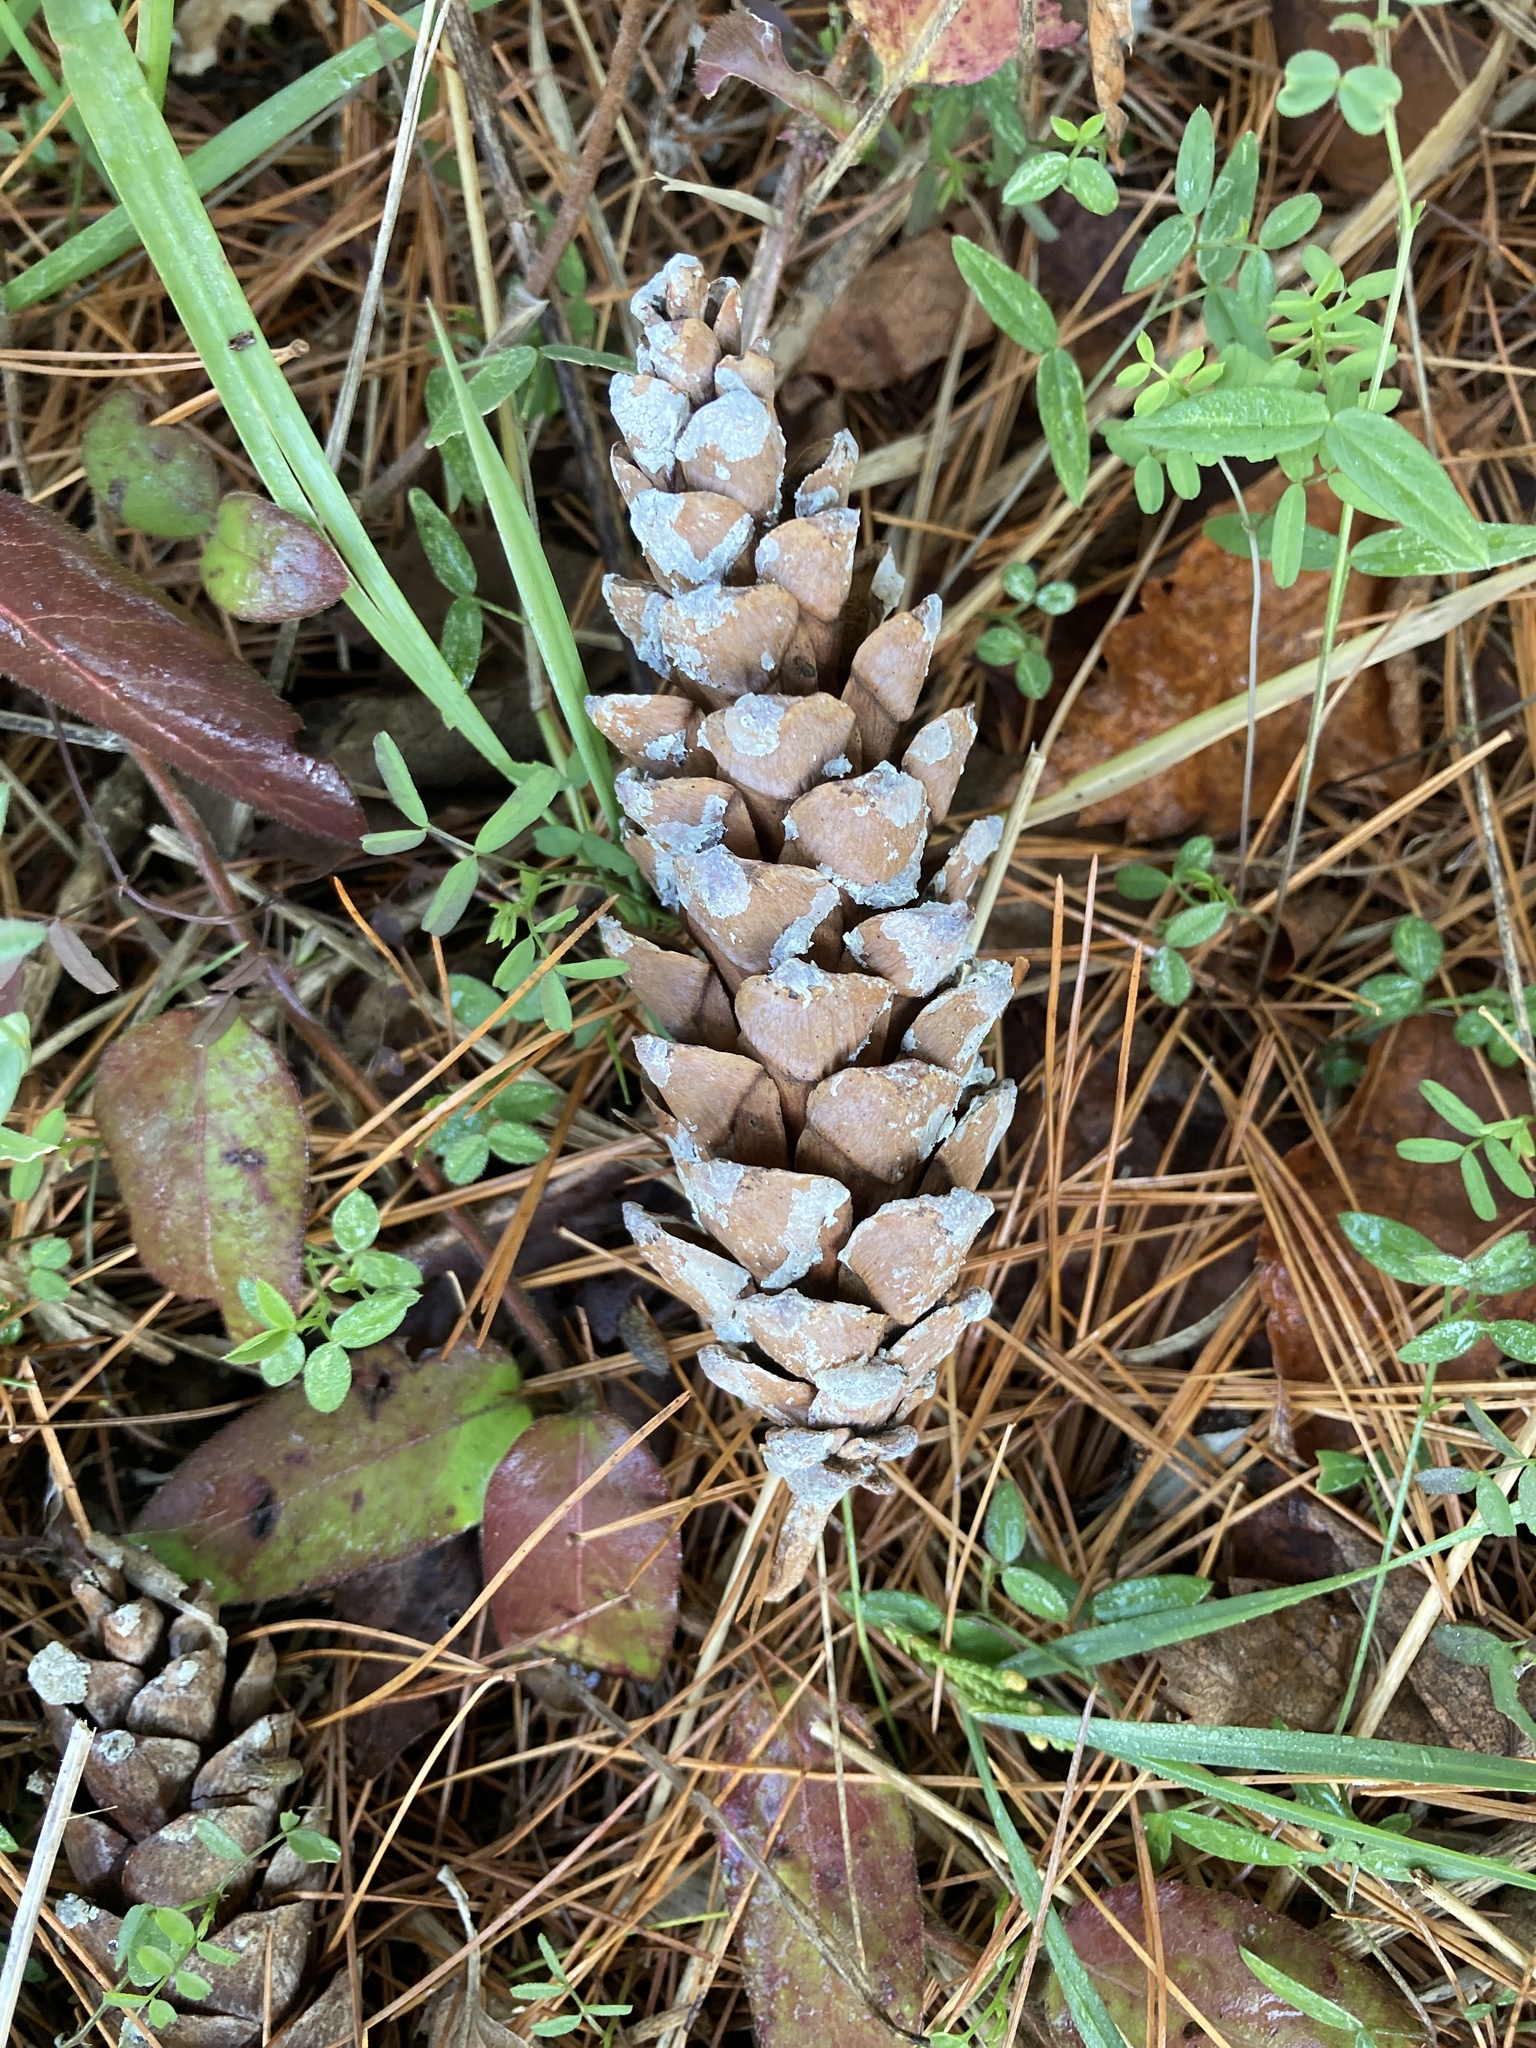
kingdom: Plantae
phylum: Tracheophyta
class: Pinopsida
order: Pinales
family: Pinaceae
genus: Pinus
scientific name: Pinus strobus
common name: Weymouth pine
